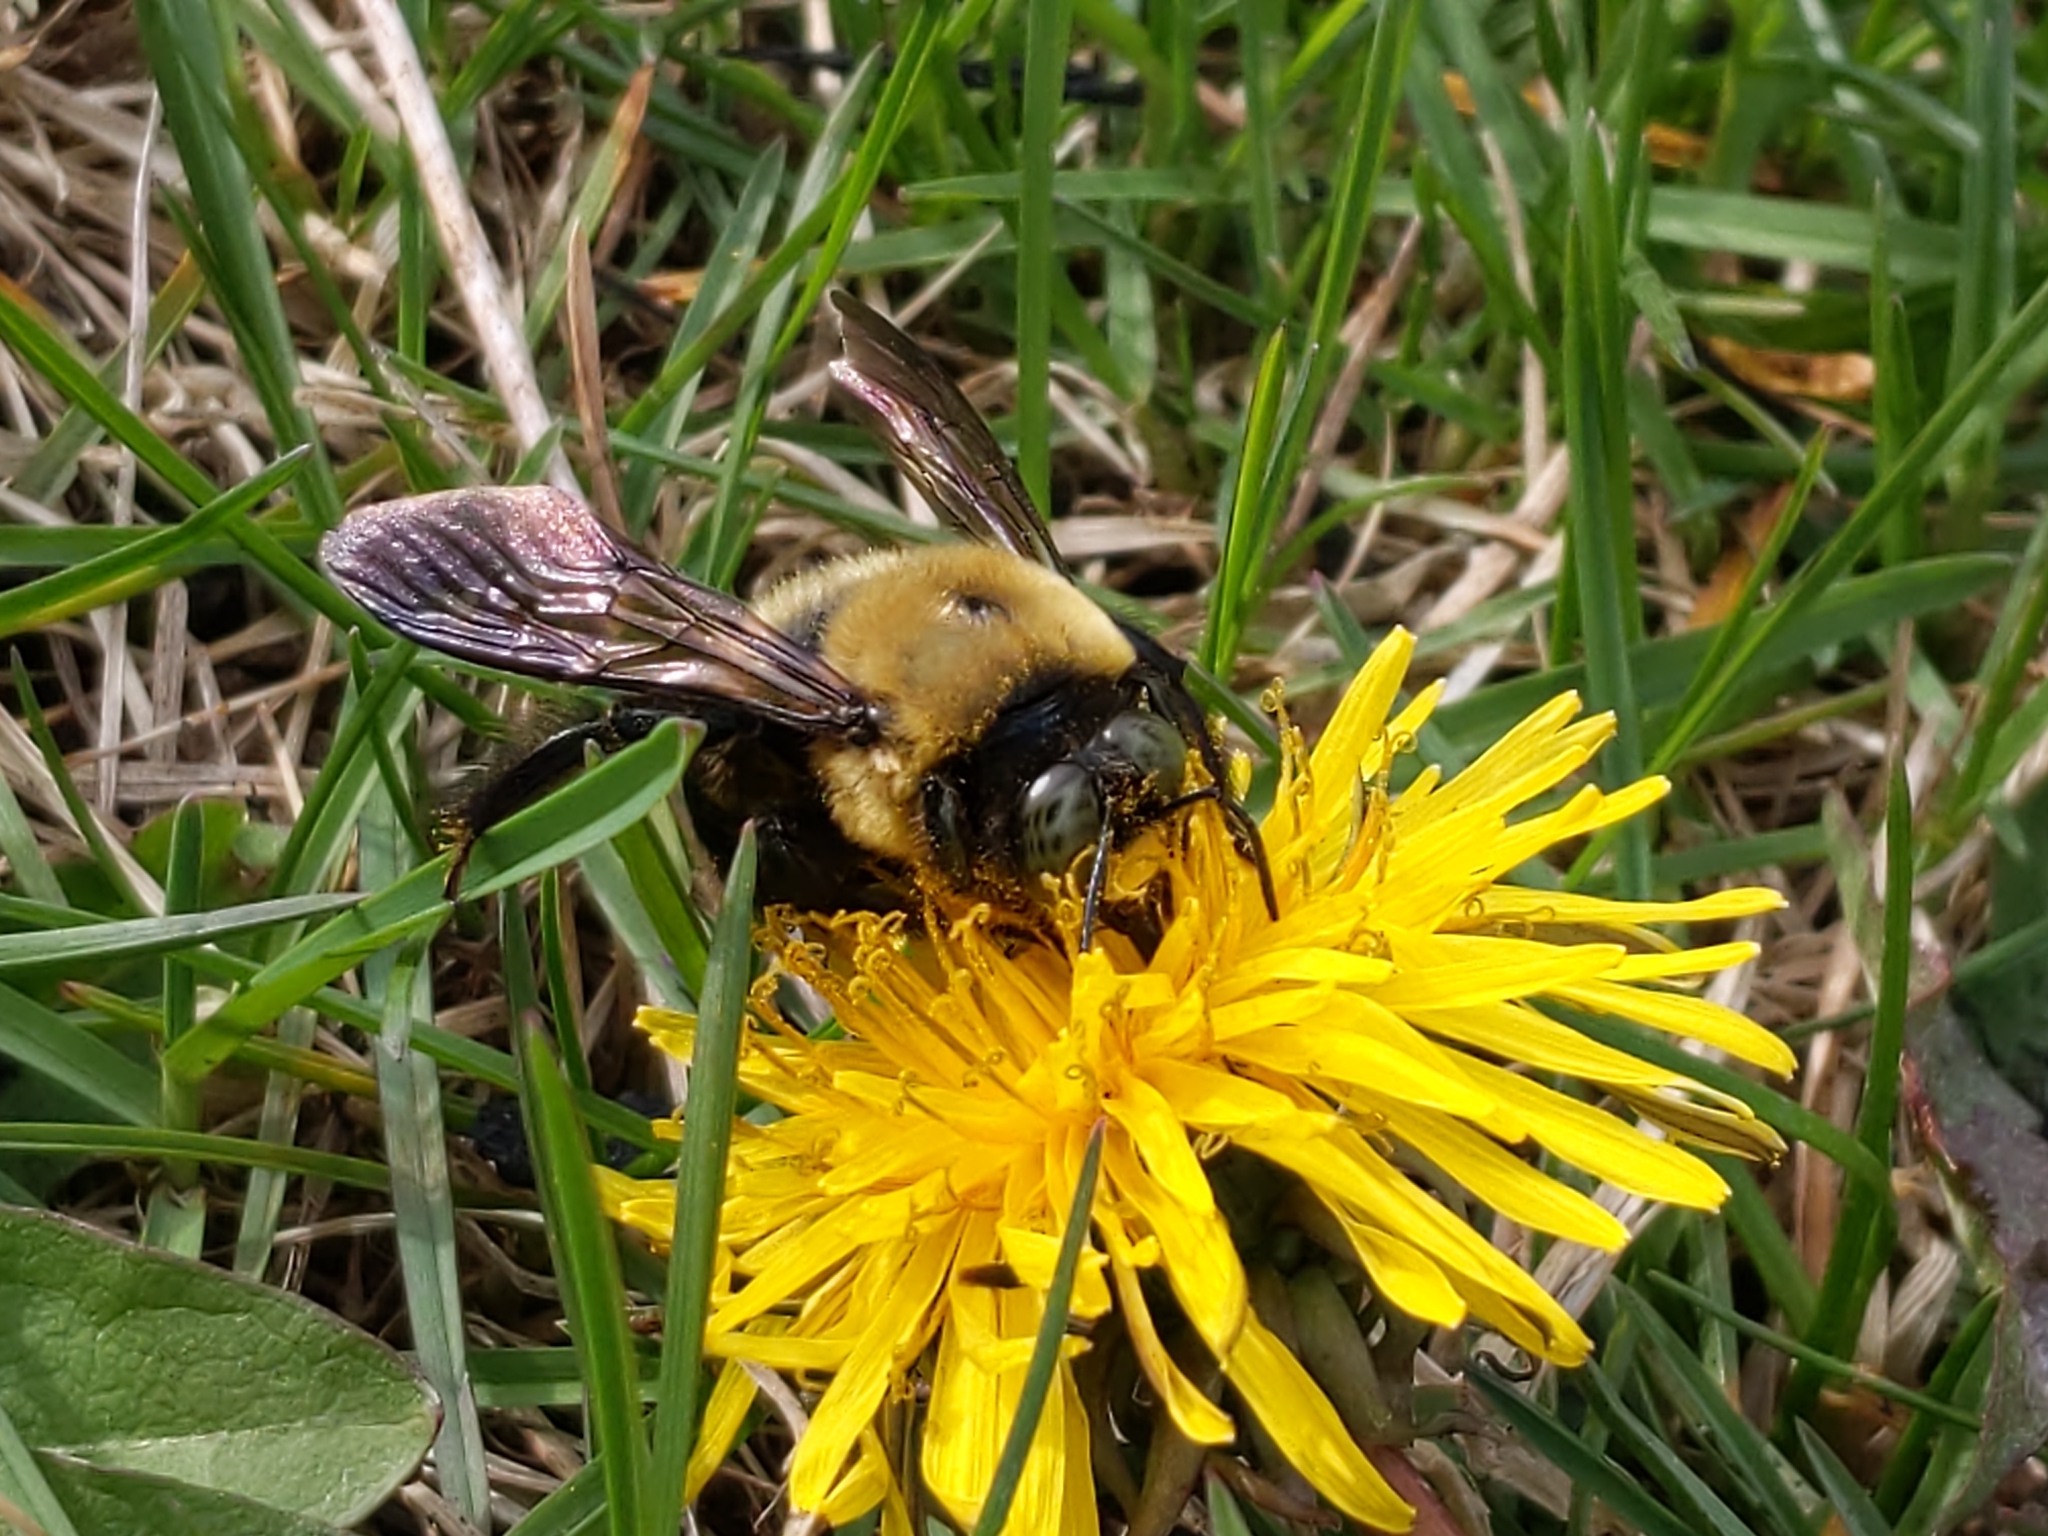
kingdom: Animalia
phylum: Arthropoda
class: Insecta
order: Hymenoptera
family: Apidae
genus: Xylocopa
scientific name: Xylocopa virginica
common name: Carpenter bee
